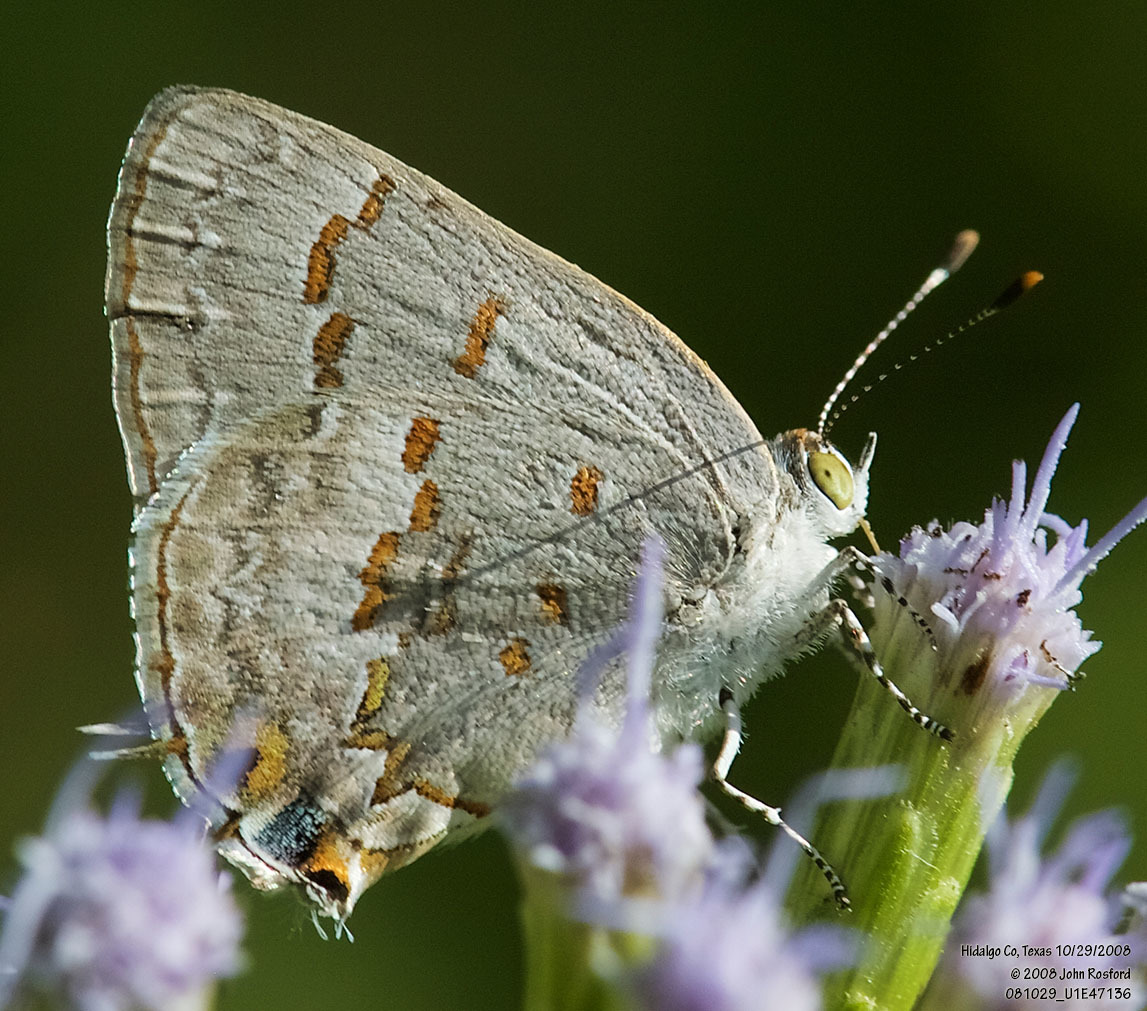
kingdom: Animalia
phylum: Arthropoda
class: Insecta
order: Lepidoptera
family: Lycaenidae
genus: Ministrymon
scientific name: Ministrymon clytie
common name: Clytie ministreak
